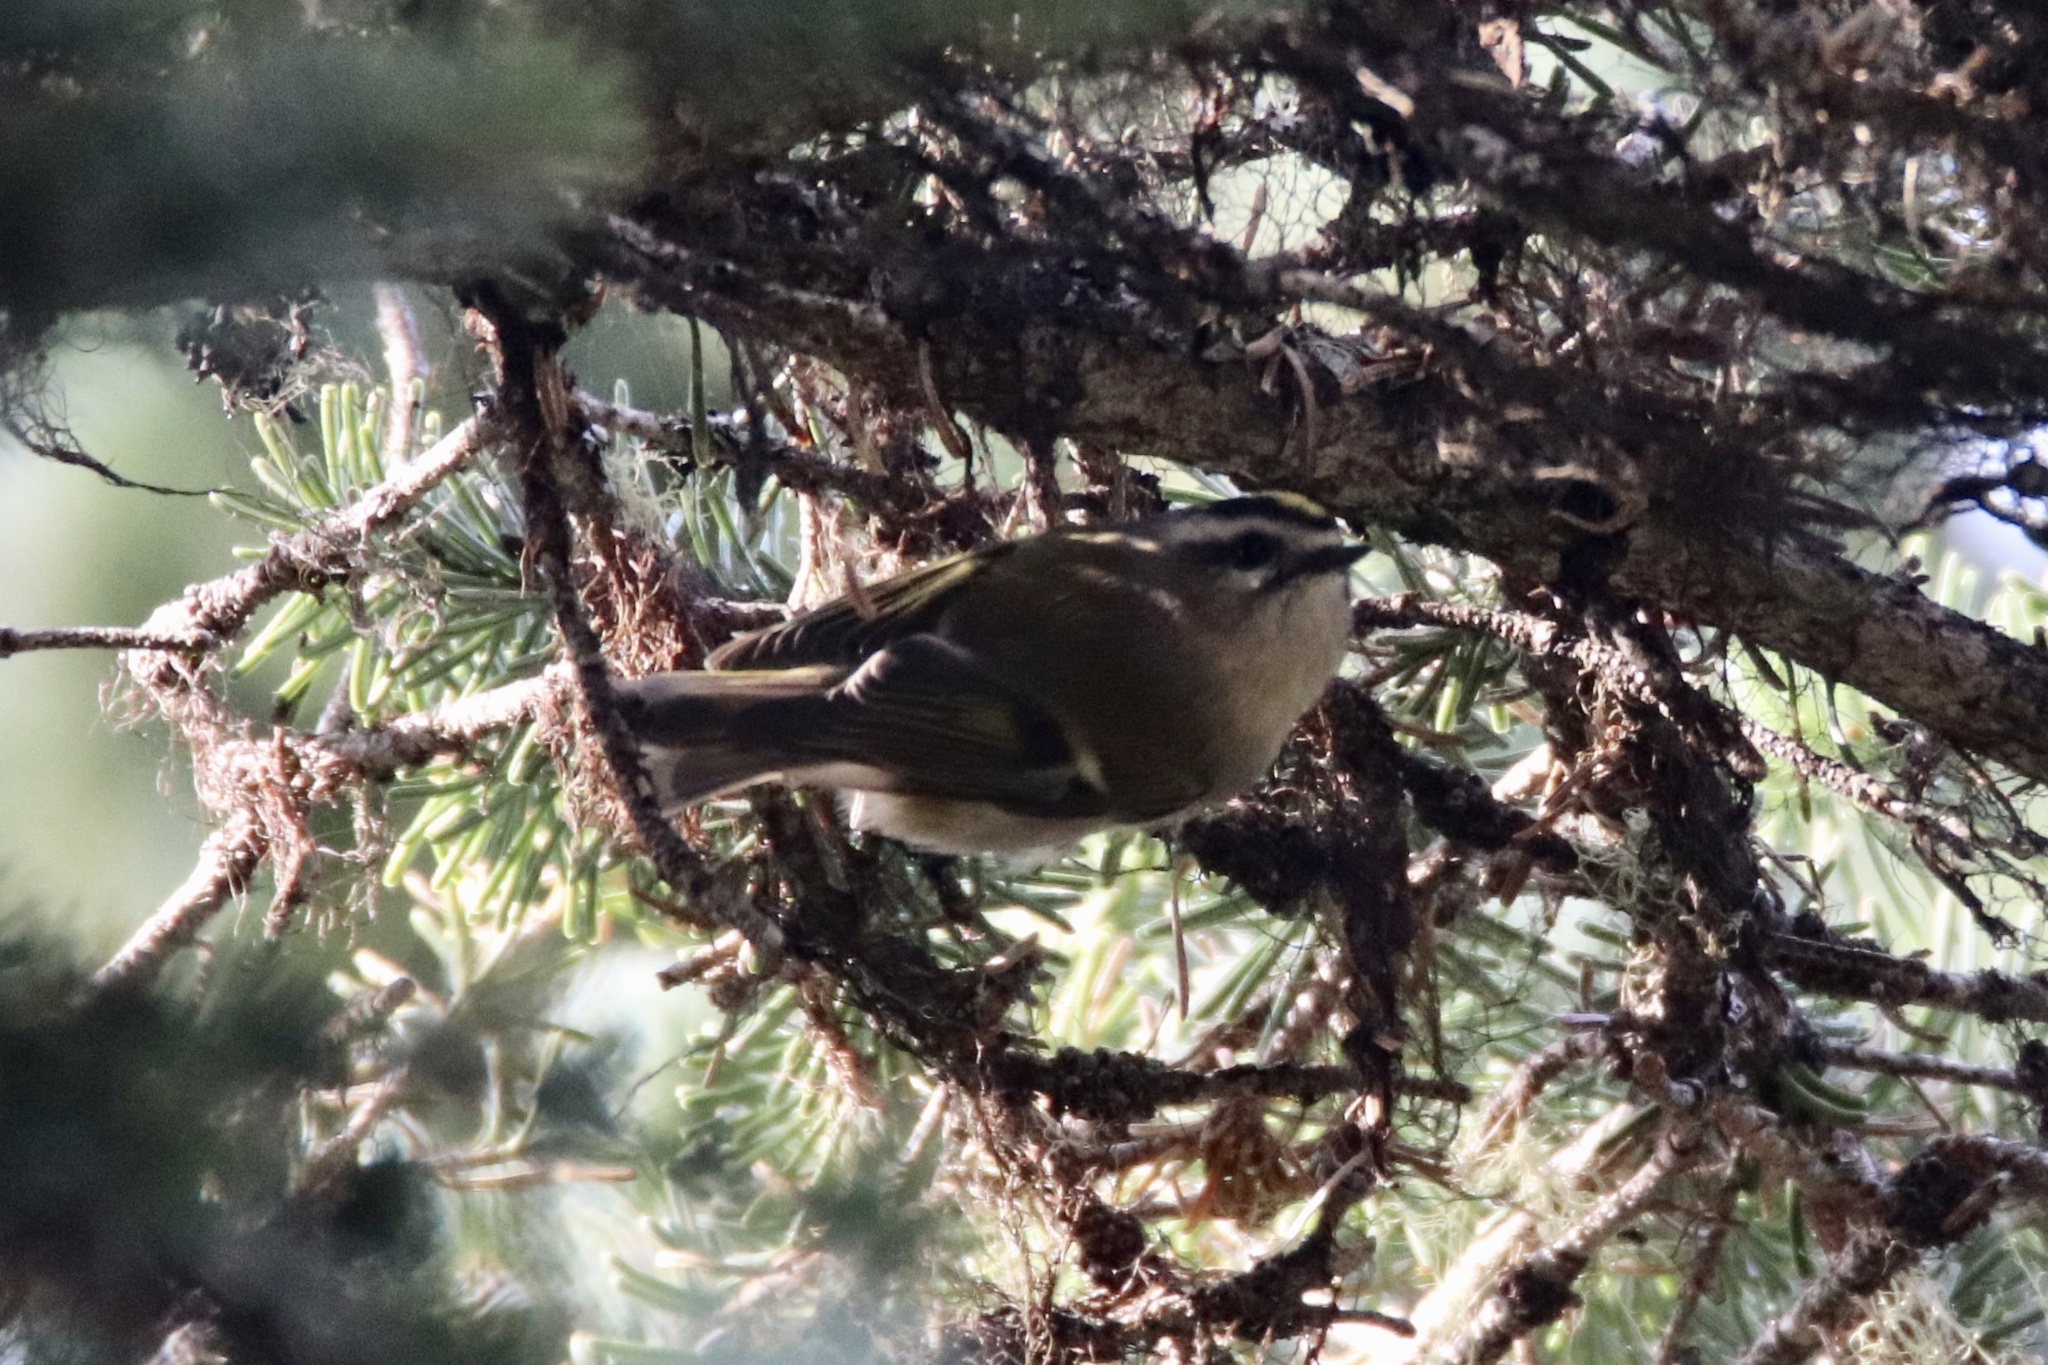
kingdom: Animalia
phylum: Chordata
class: Aves
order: Passeriformes
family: Regulidae
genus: Regulus
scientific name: Regulus satrapa
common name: Golden-crowned kinglet
